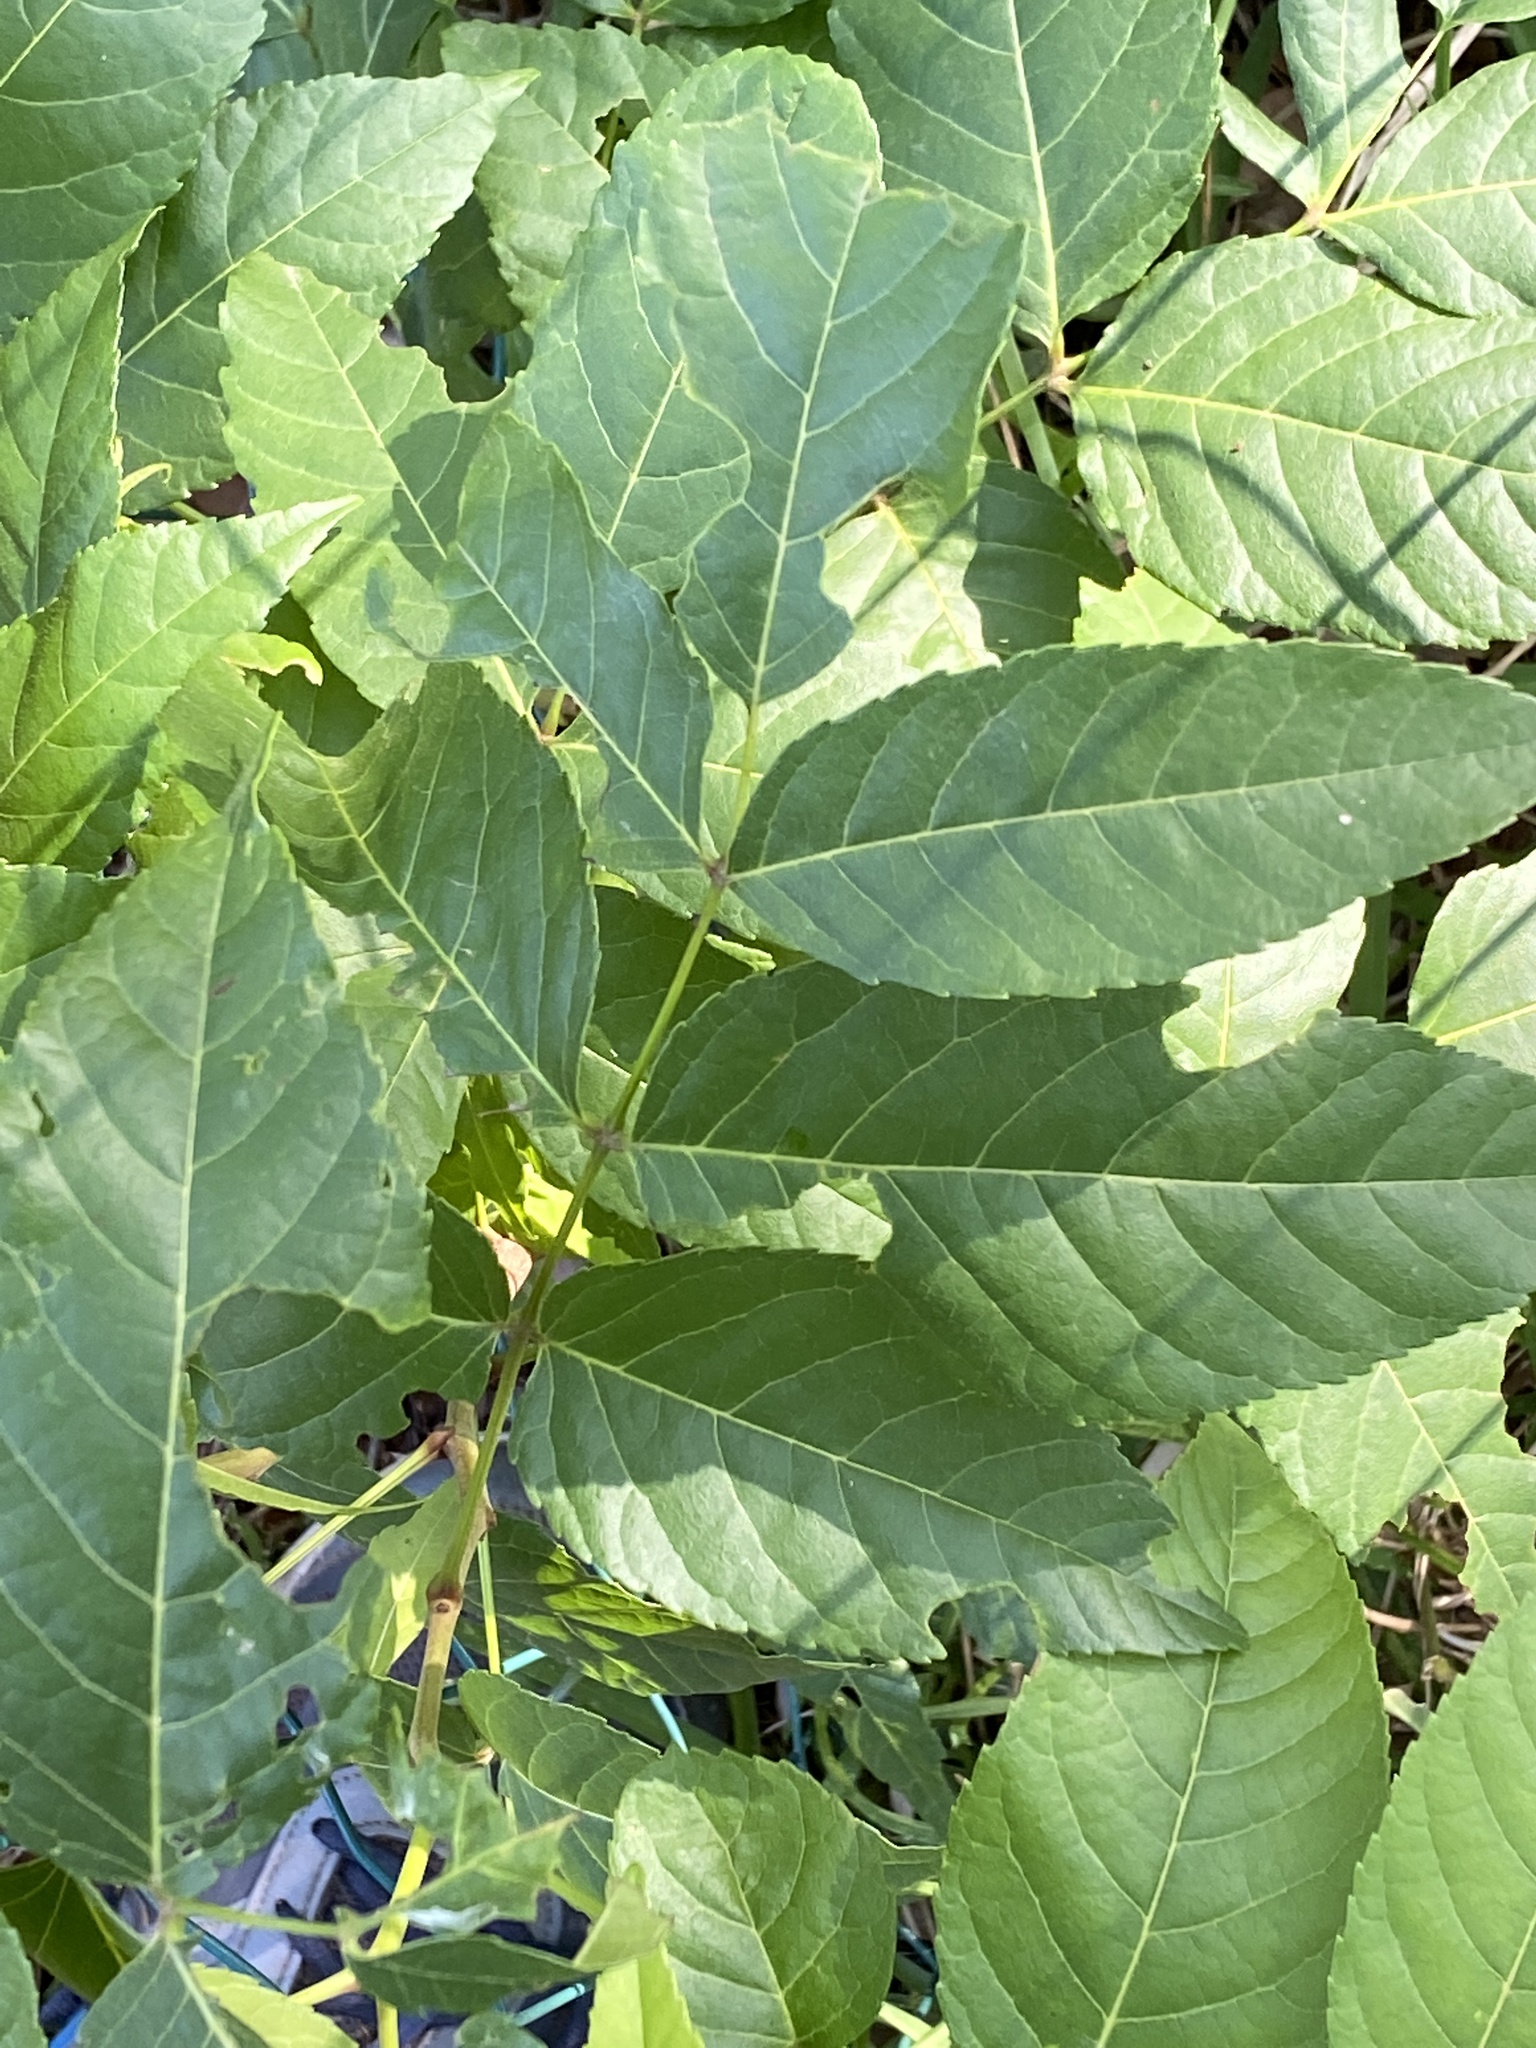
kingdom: Plantae
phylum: Tracheophyta
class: Magnoliopsida
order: Sapindales
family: Sapindaceae
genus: Ungnadia
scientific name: Ungnadia speciosa
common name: Texas-buckeye
